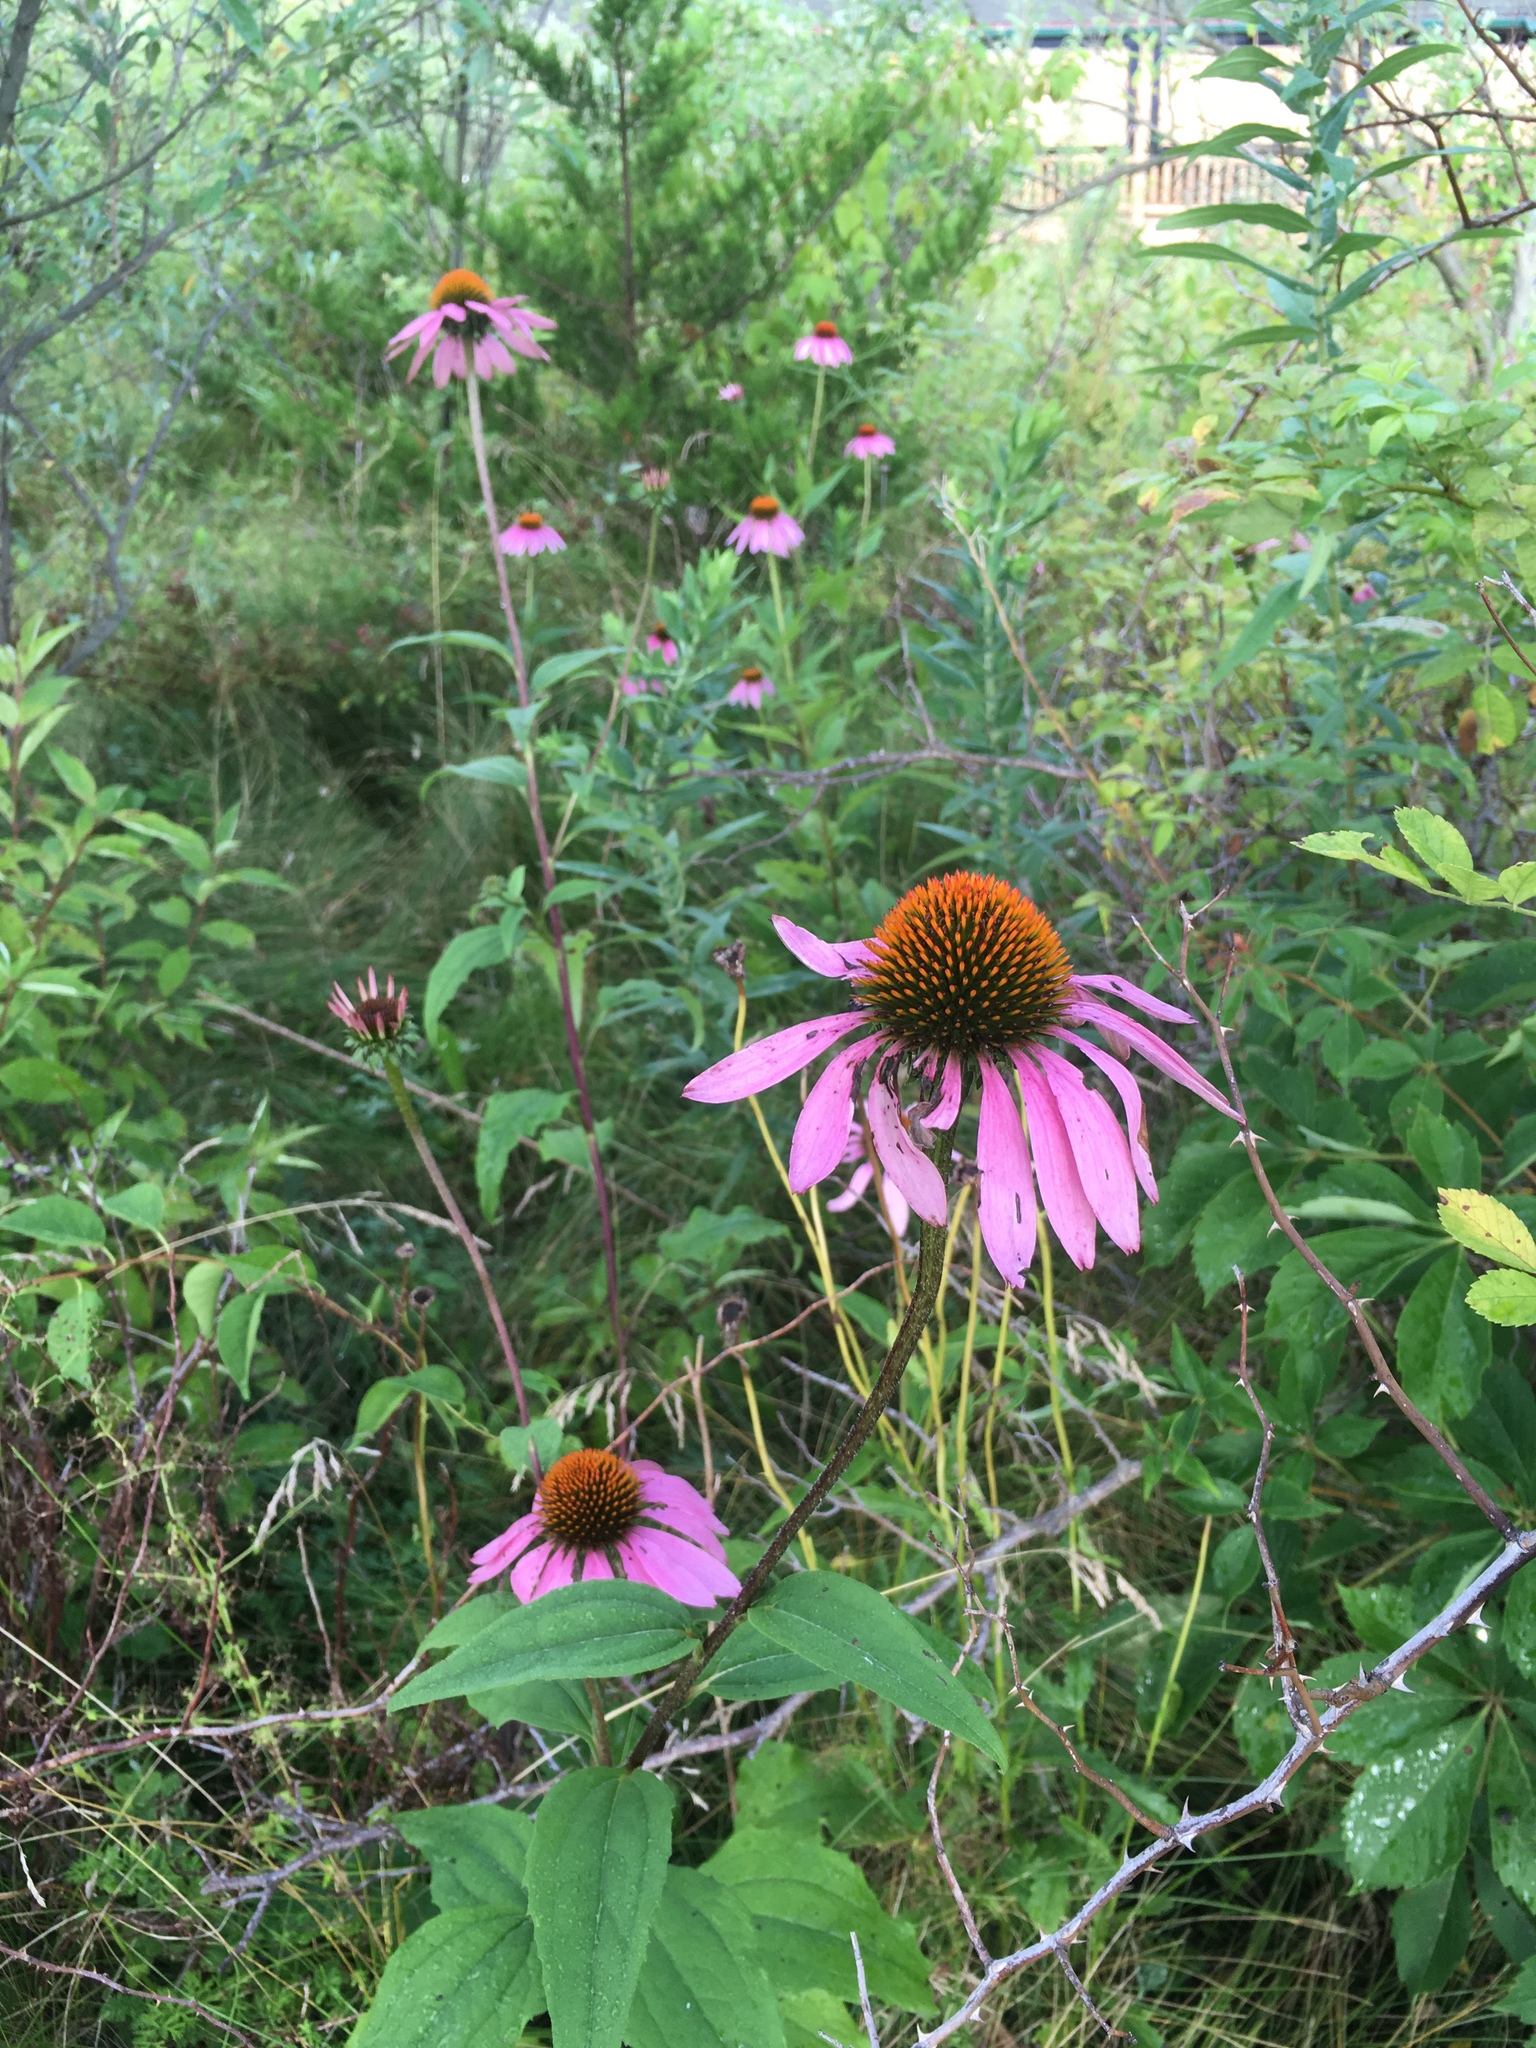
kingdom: Plantae
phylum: Tracheophyta
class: Magnoliopsida
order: Asterales
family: Asteraceae
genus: Echinacea
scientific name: Echinacea purpurea
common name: Broad-leaved purple coneflower
